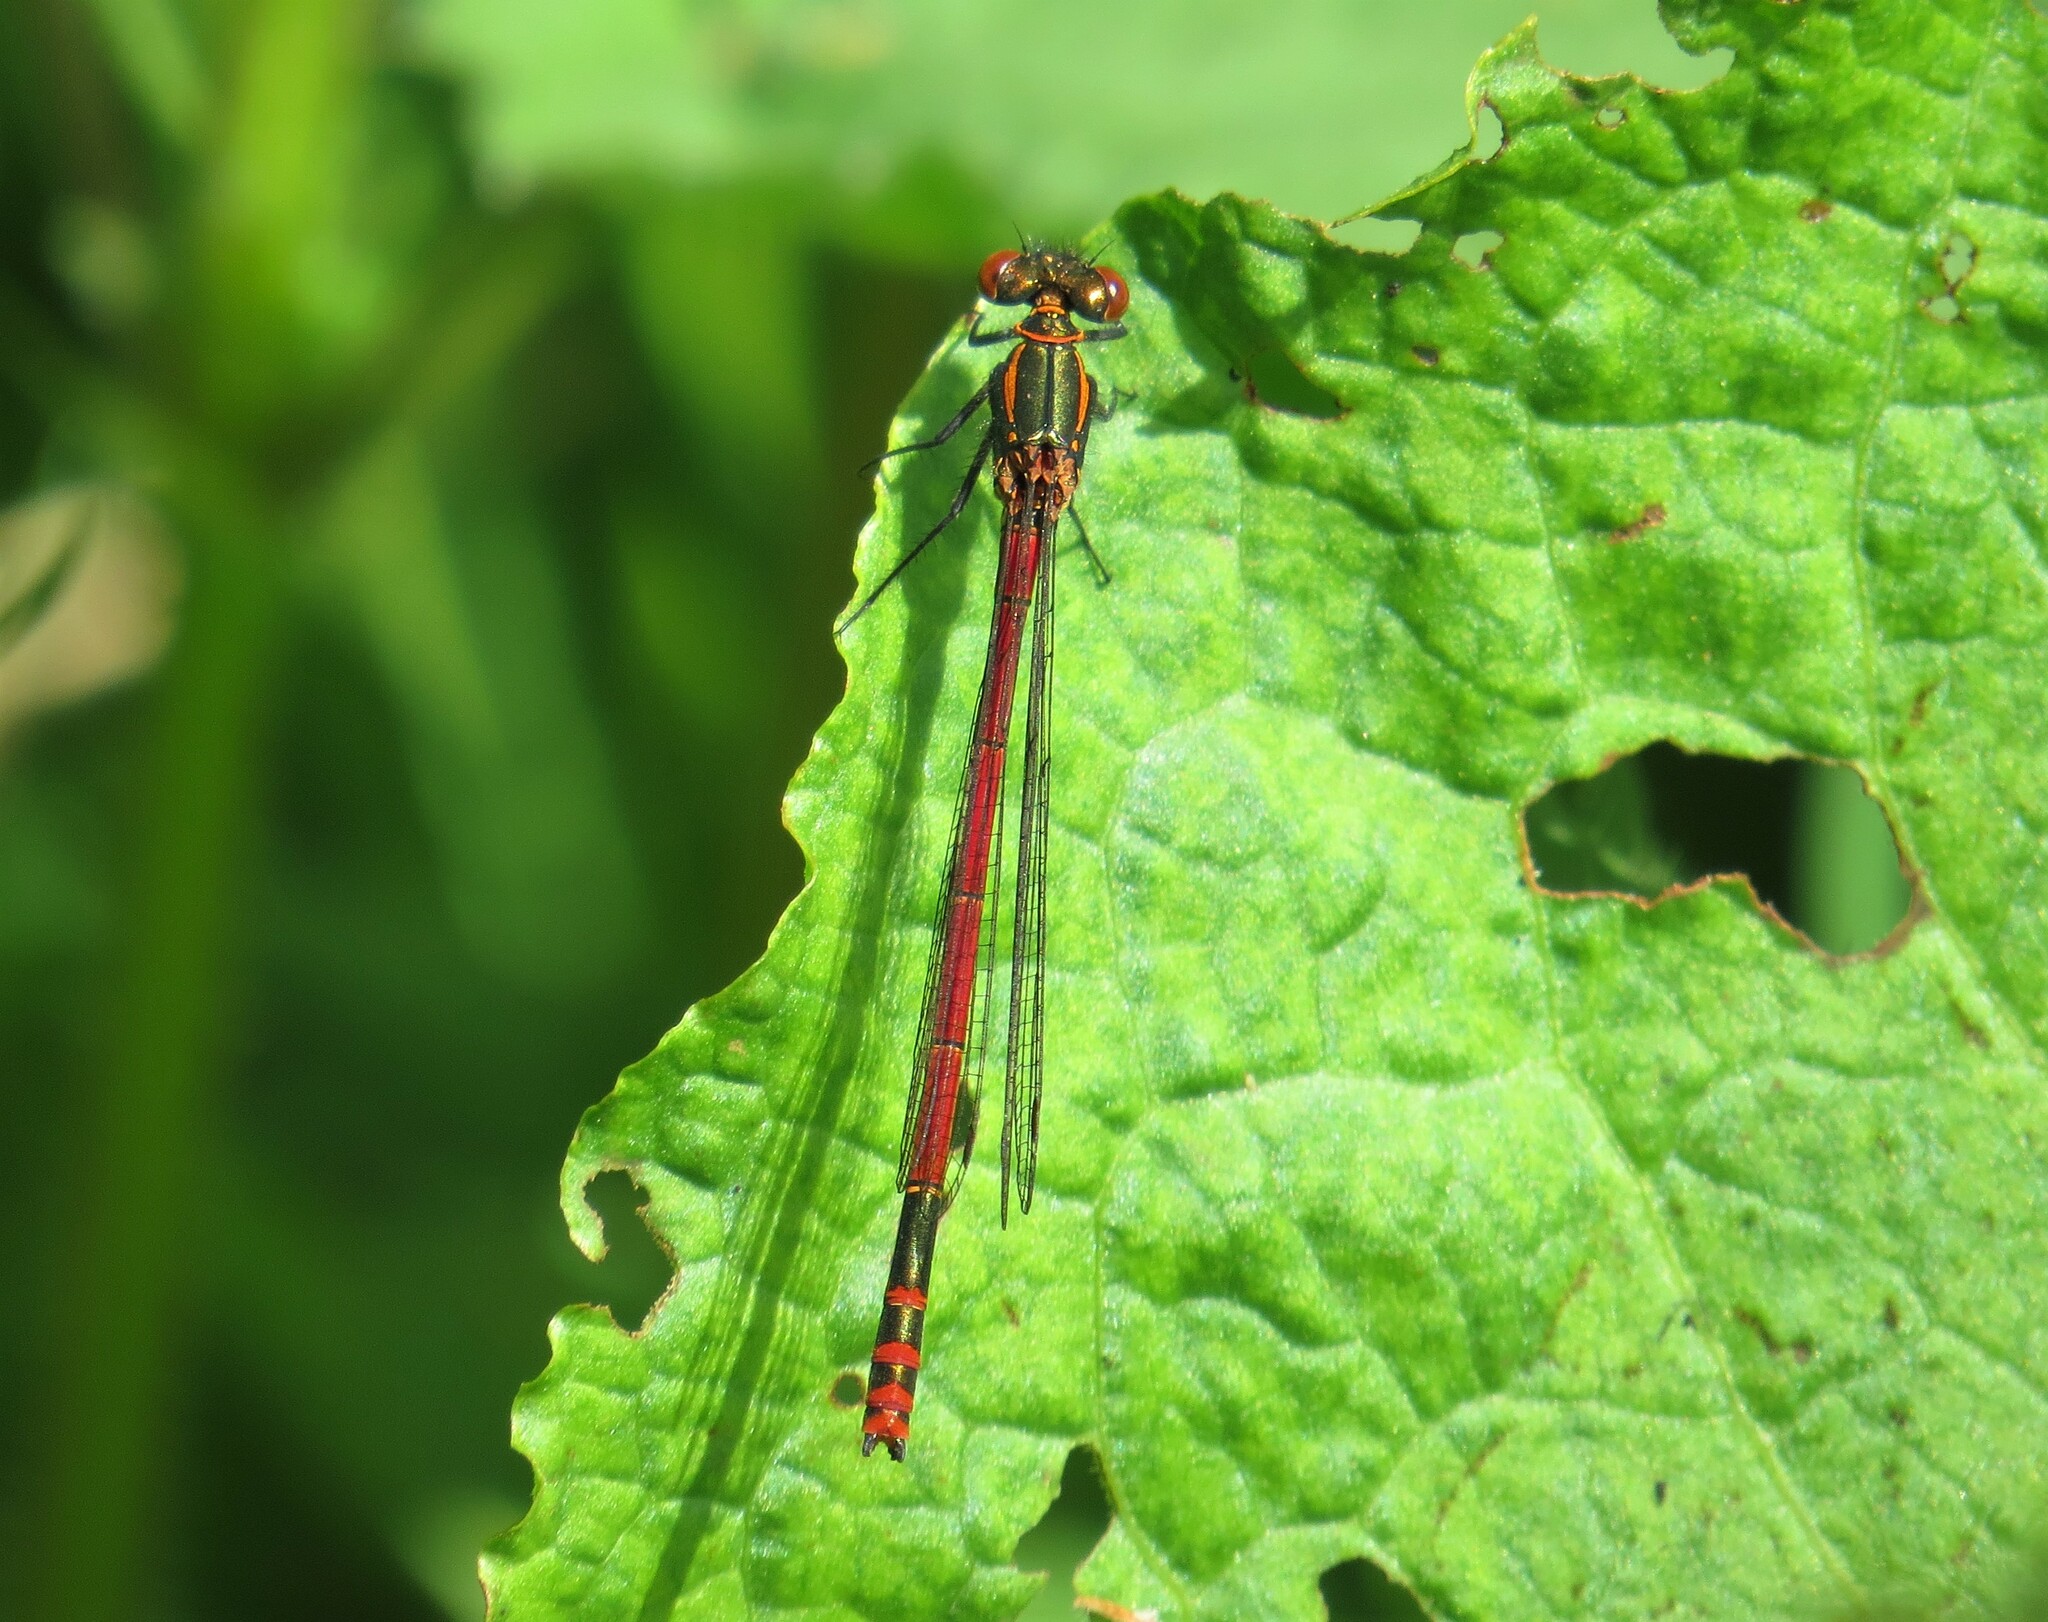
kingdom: Animalia
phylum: Arthropoda
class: Insecta
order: Odonata
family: Coenagrionidae
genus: Pyrrhosoma
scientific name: Pyrrhosoma nymphula
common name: Large red damsel
